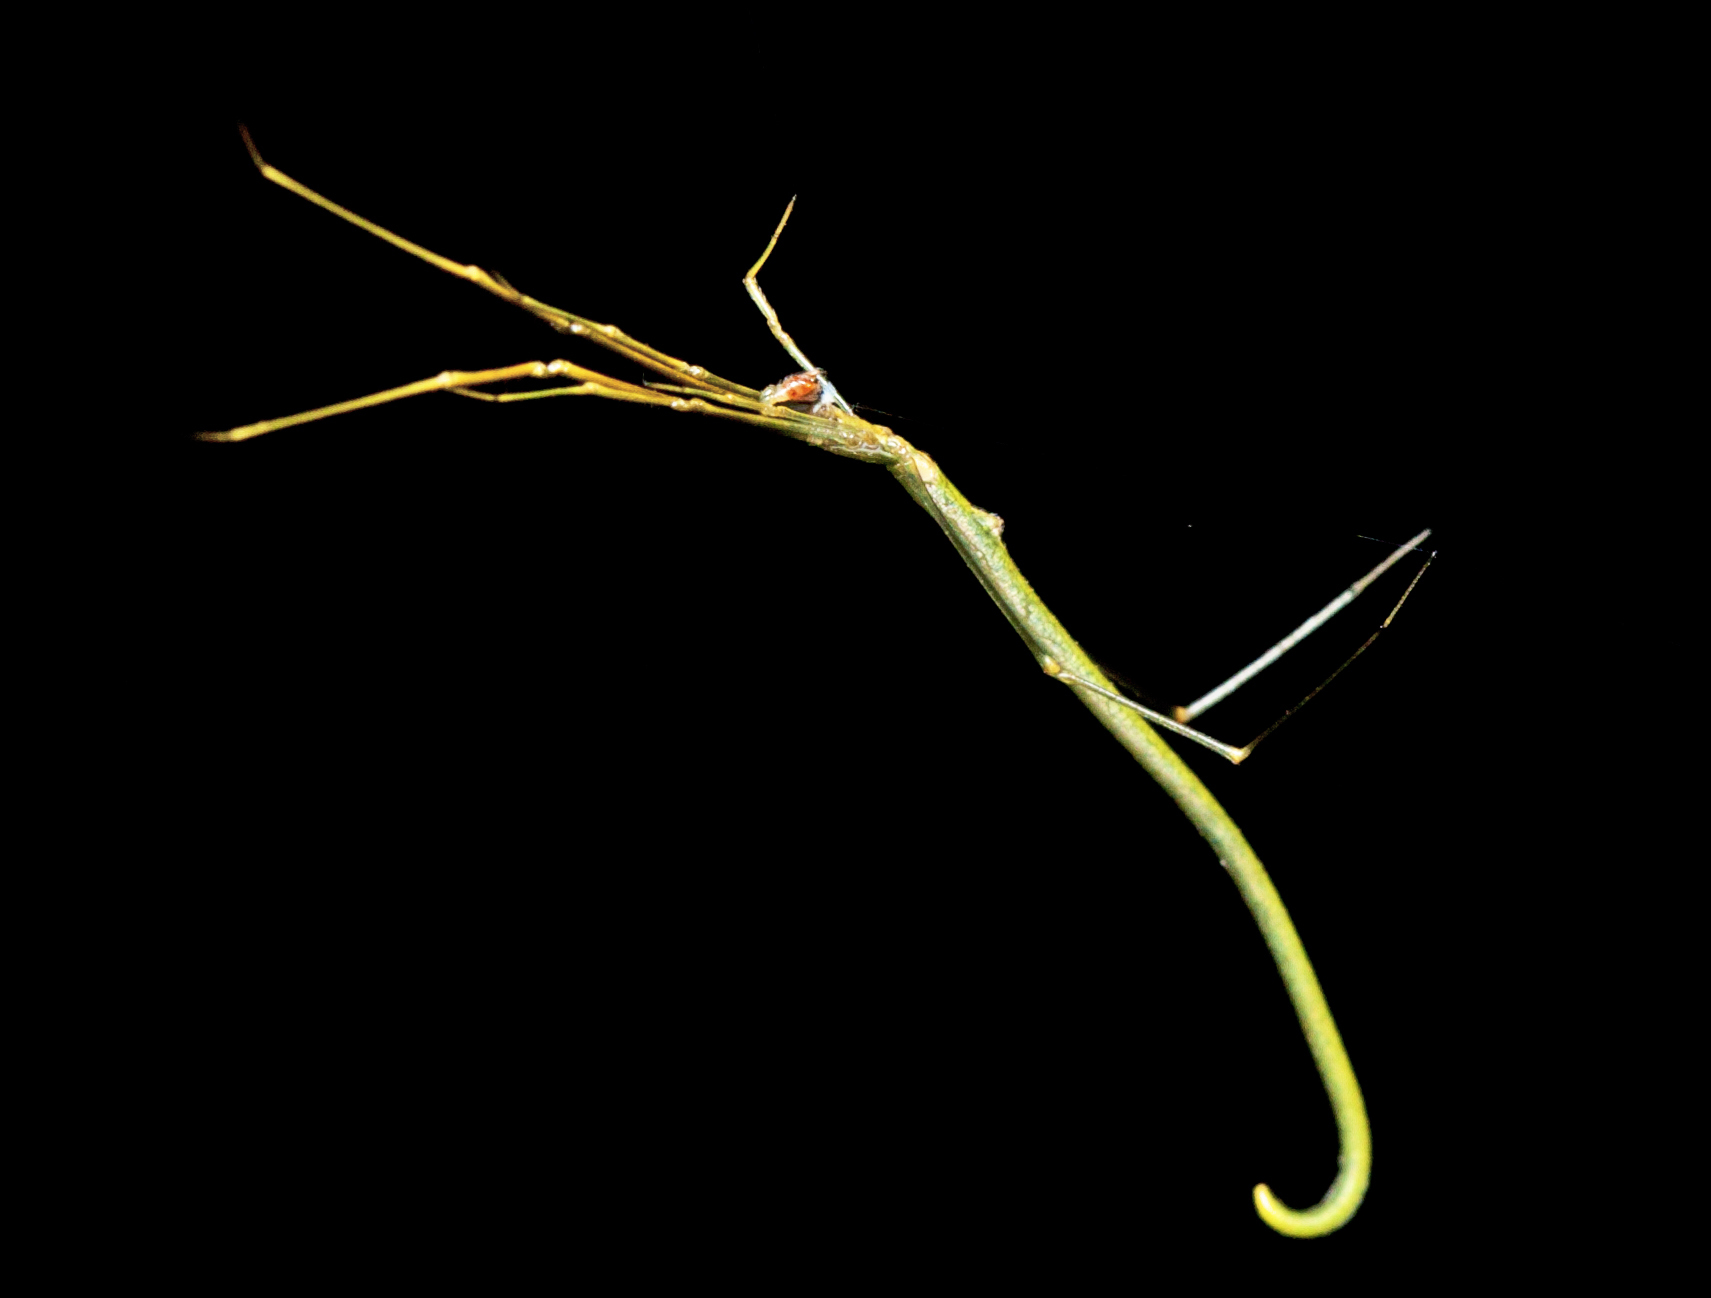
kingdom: Animalia
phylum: Arthropoda
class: Arachnida
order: Araneae
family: Theridiidae
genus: Ariamnes
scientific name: Ariamnes colubrinus
